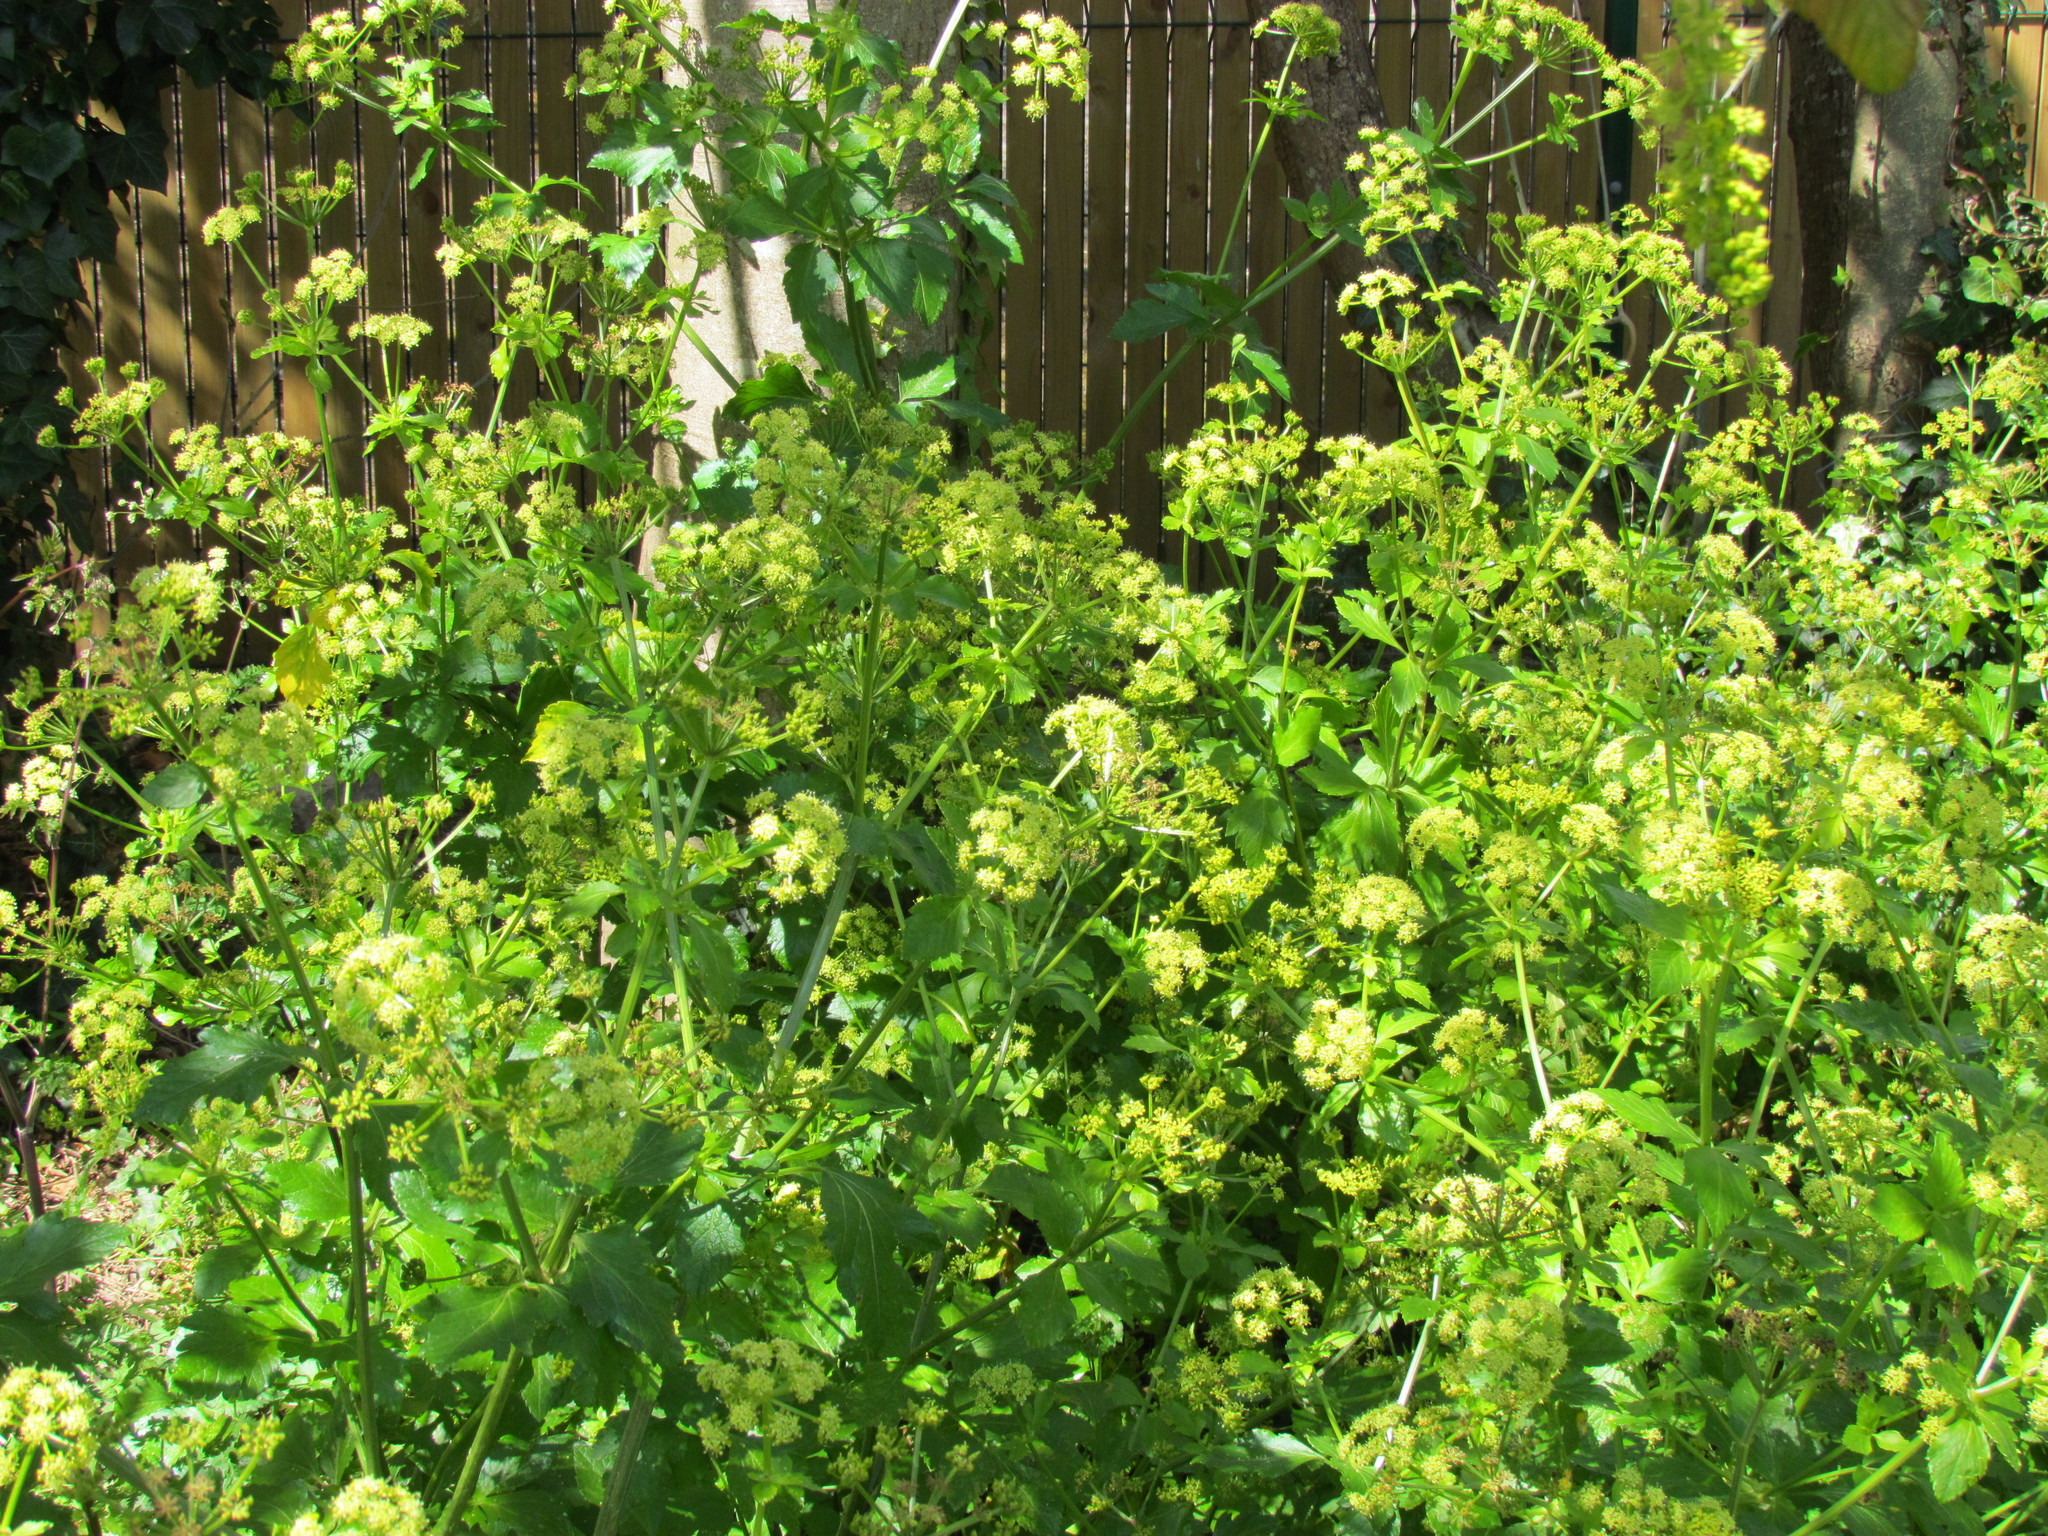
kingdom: Plantae
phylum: Tracheophyta
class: Magnoliopsida
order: Apiales
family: Apiaceae
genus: Smyrnium
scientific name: Smyrnium olusatrum
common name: Alexanders
